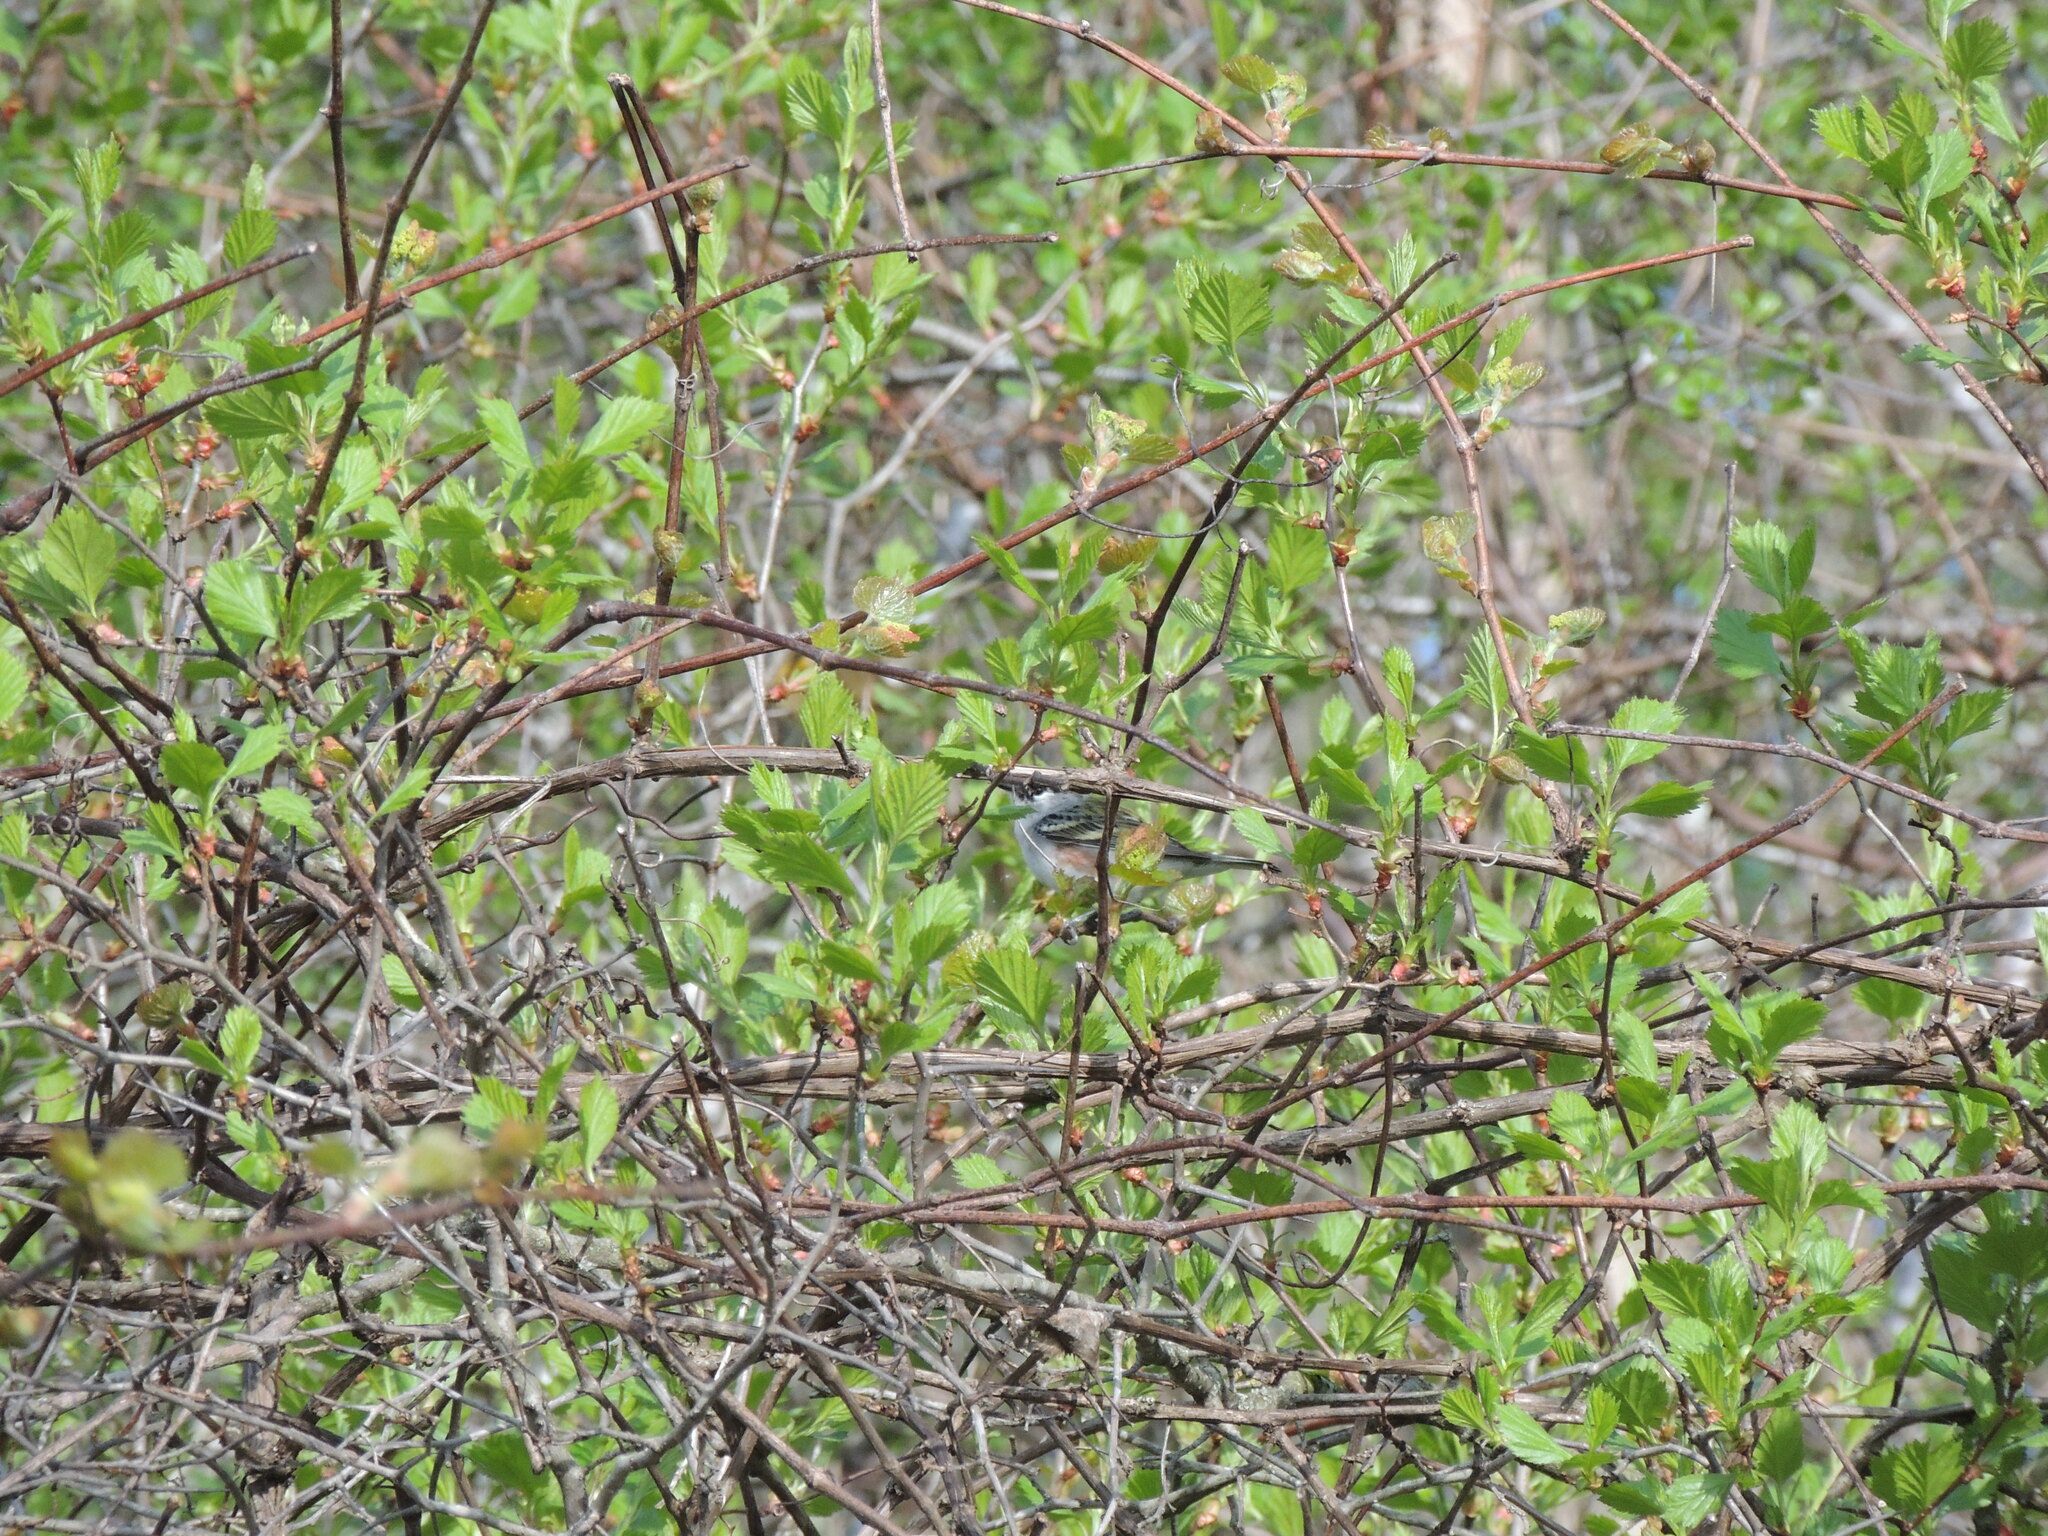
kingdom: Animalia
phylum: Chordata
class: Aves
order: Passeriformes
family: Parulidae
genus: Setophaga
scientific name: Setophaga pensylvanica
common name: Chestnut-sided warbler
